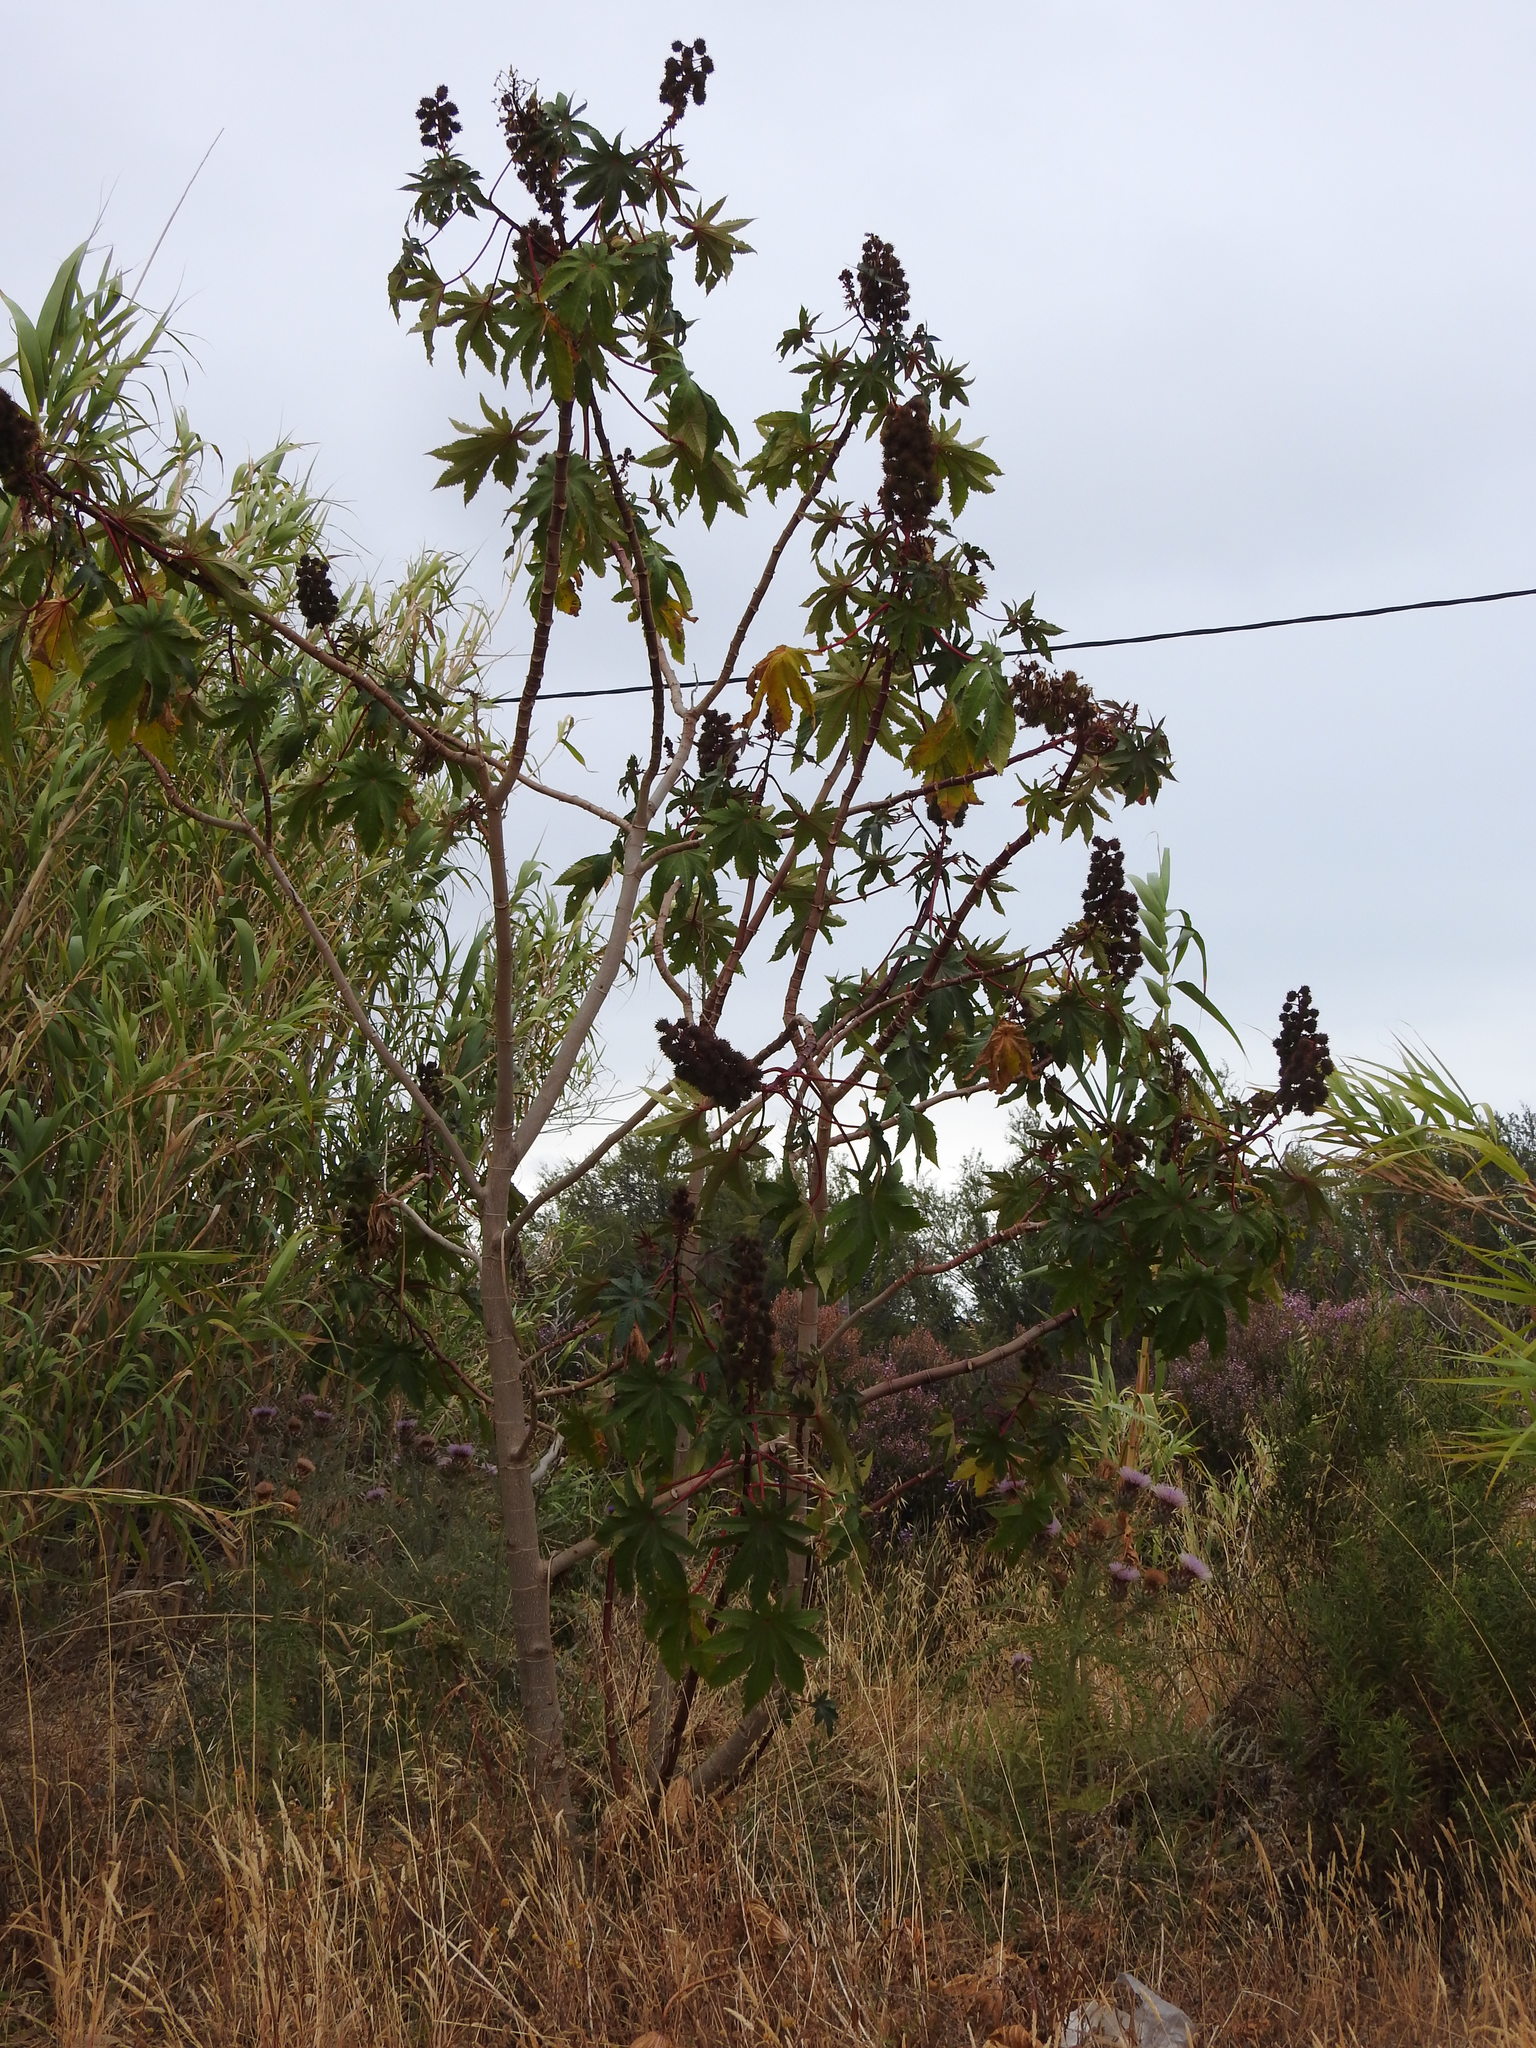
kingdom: Plantae
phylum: Tracheophyta
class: Magnoliopsida
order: Malpighiales
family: Euphorbiaceae
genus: Ricinus
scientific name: Ricinus communis
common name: Castor-oil-plant
